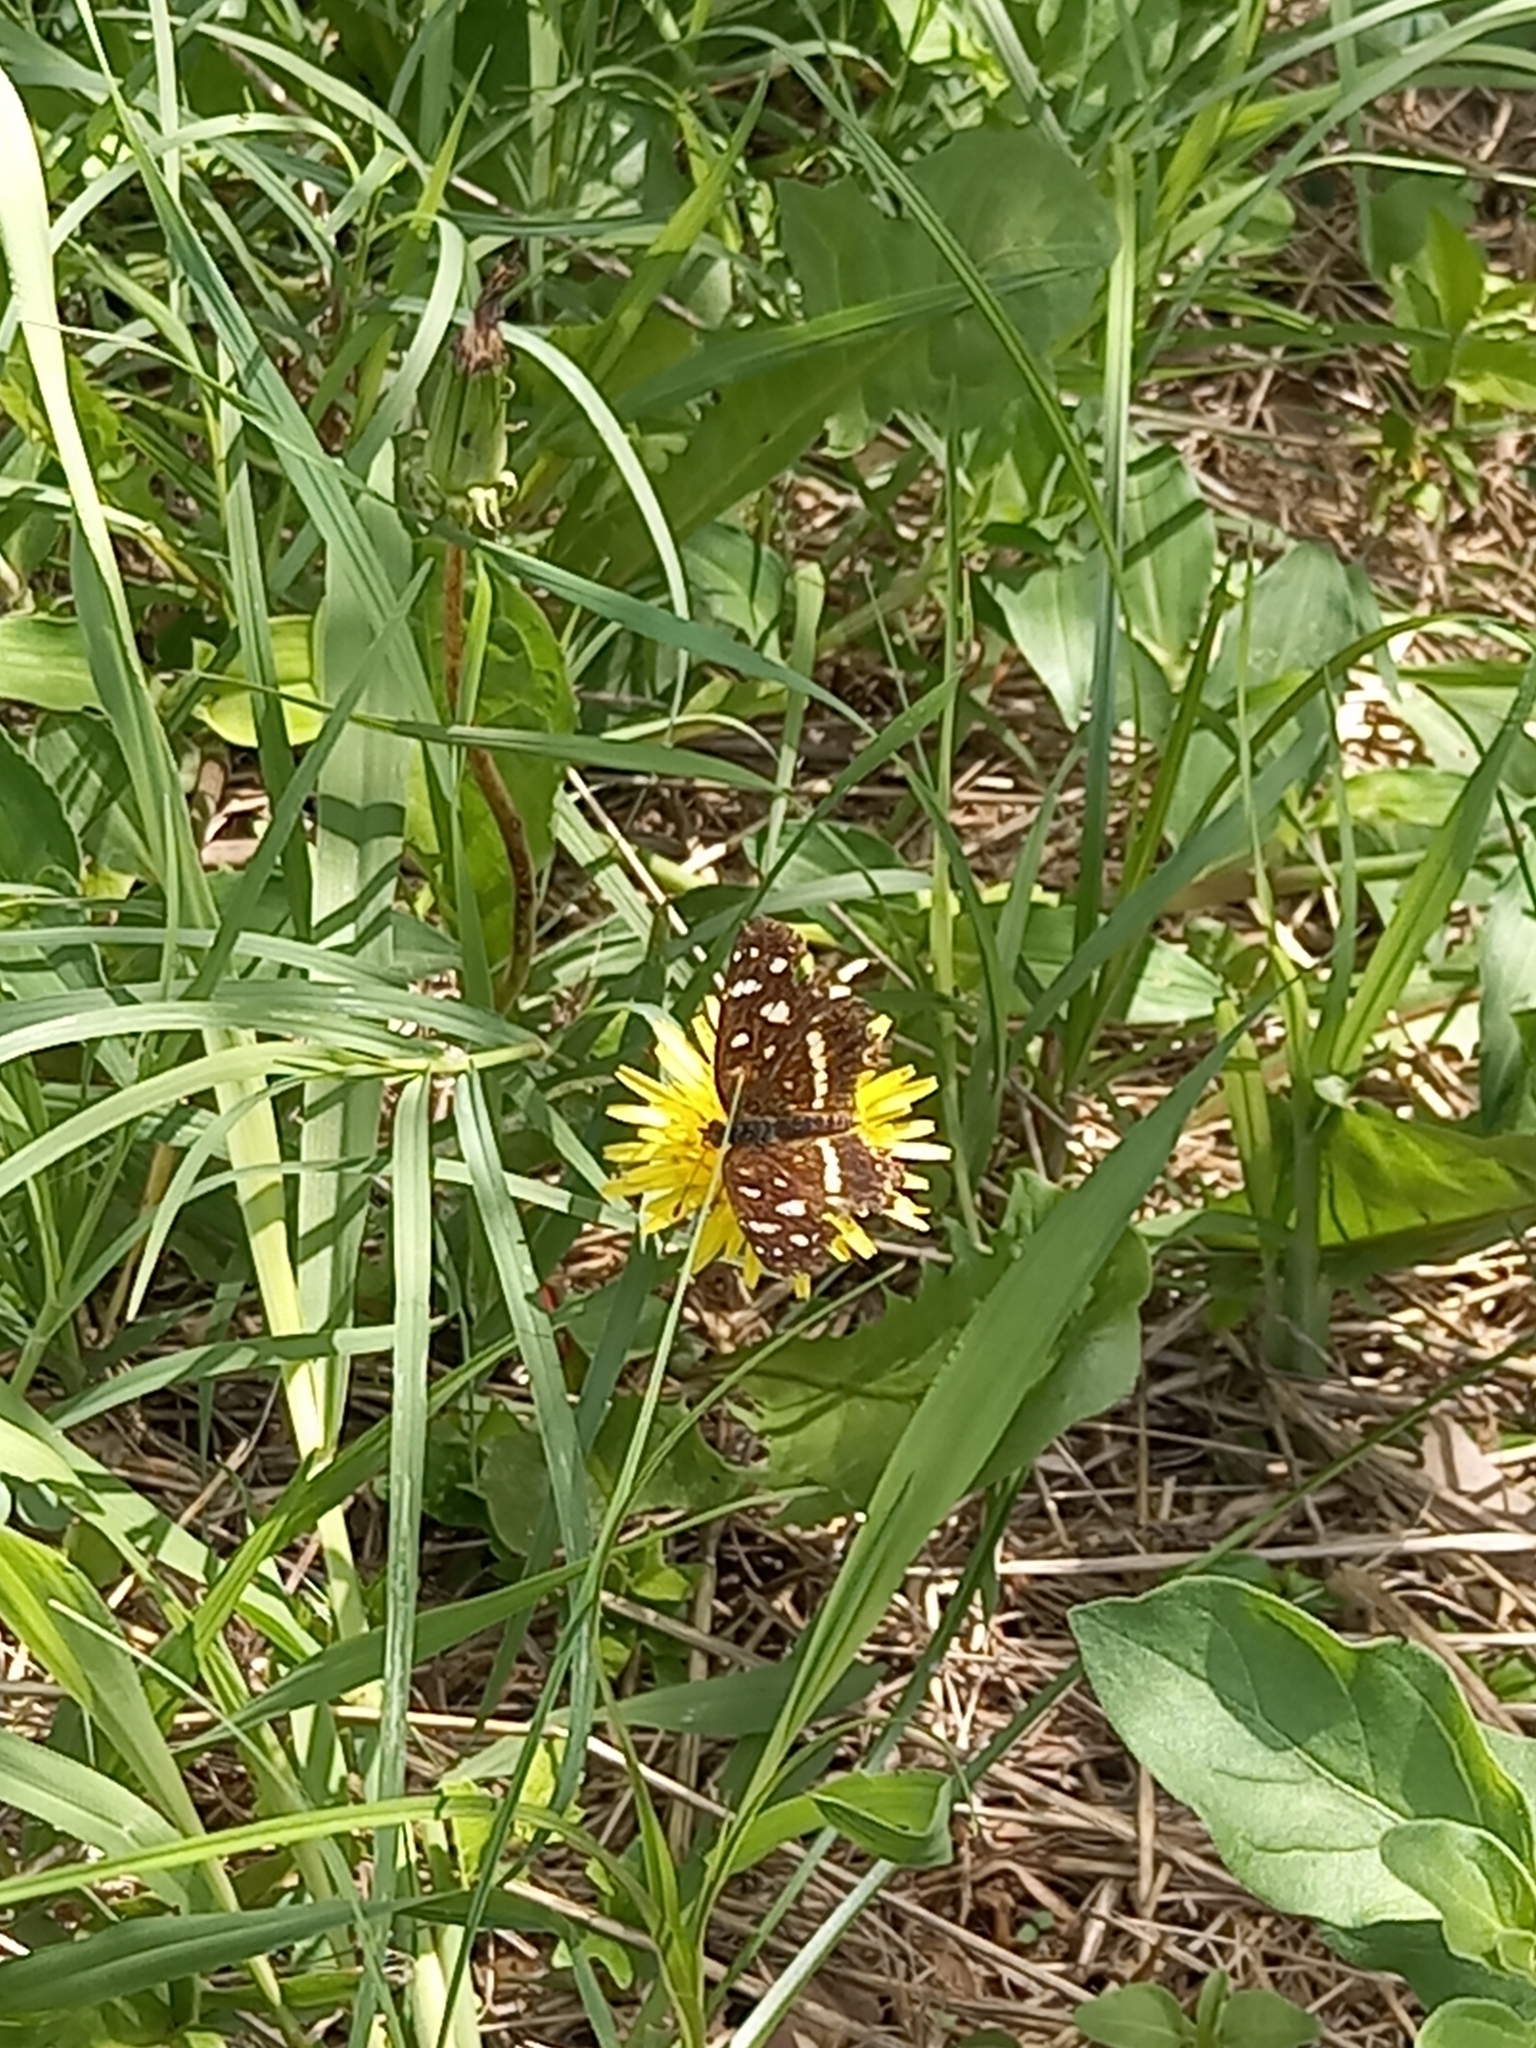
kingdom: Animalia
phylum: Arthropoda
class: Insecta
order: Lepidoptera
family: Nymphalidae
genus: Ortilia
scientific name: Ortilia ithra
